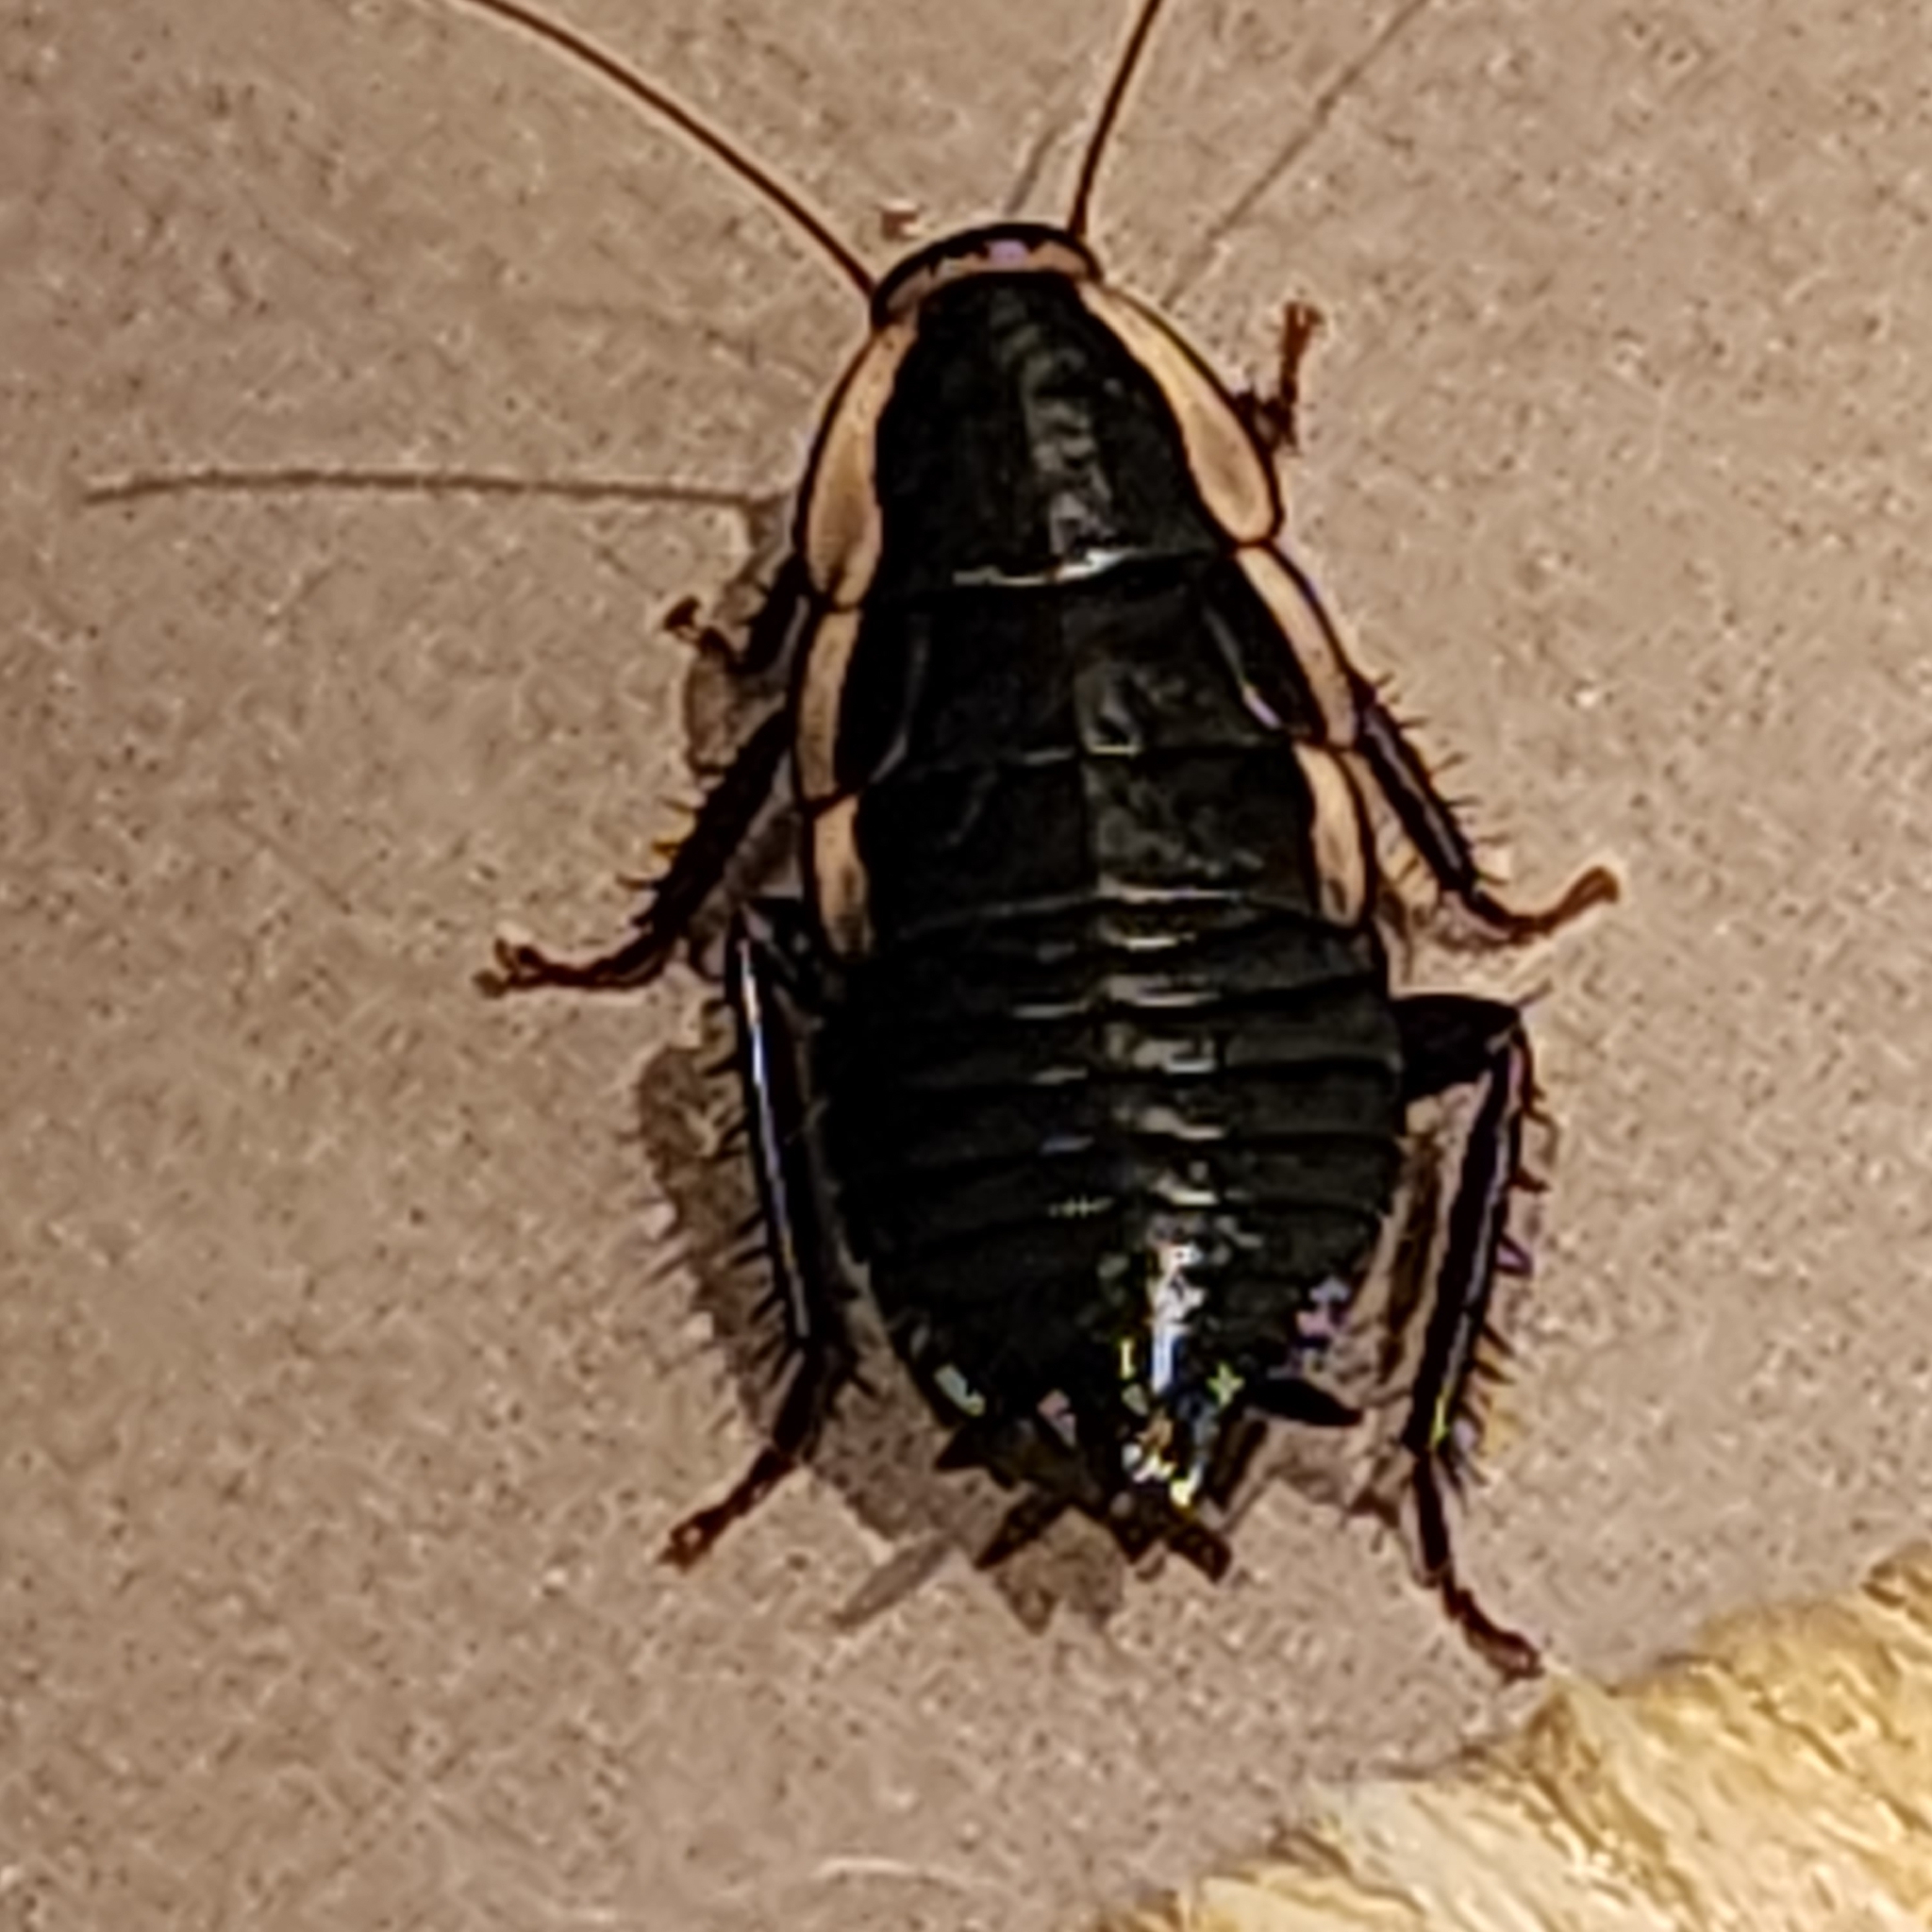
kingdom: Animalia
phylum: Arthropoda
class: Insecta
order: Blattodea
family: Blattidae
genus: Drymaplaneta
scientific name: Drymaplaneta semivitta
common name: Gisborne cockroach
